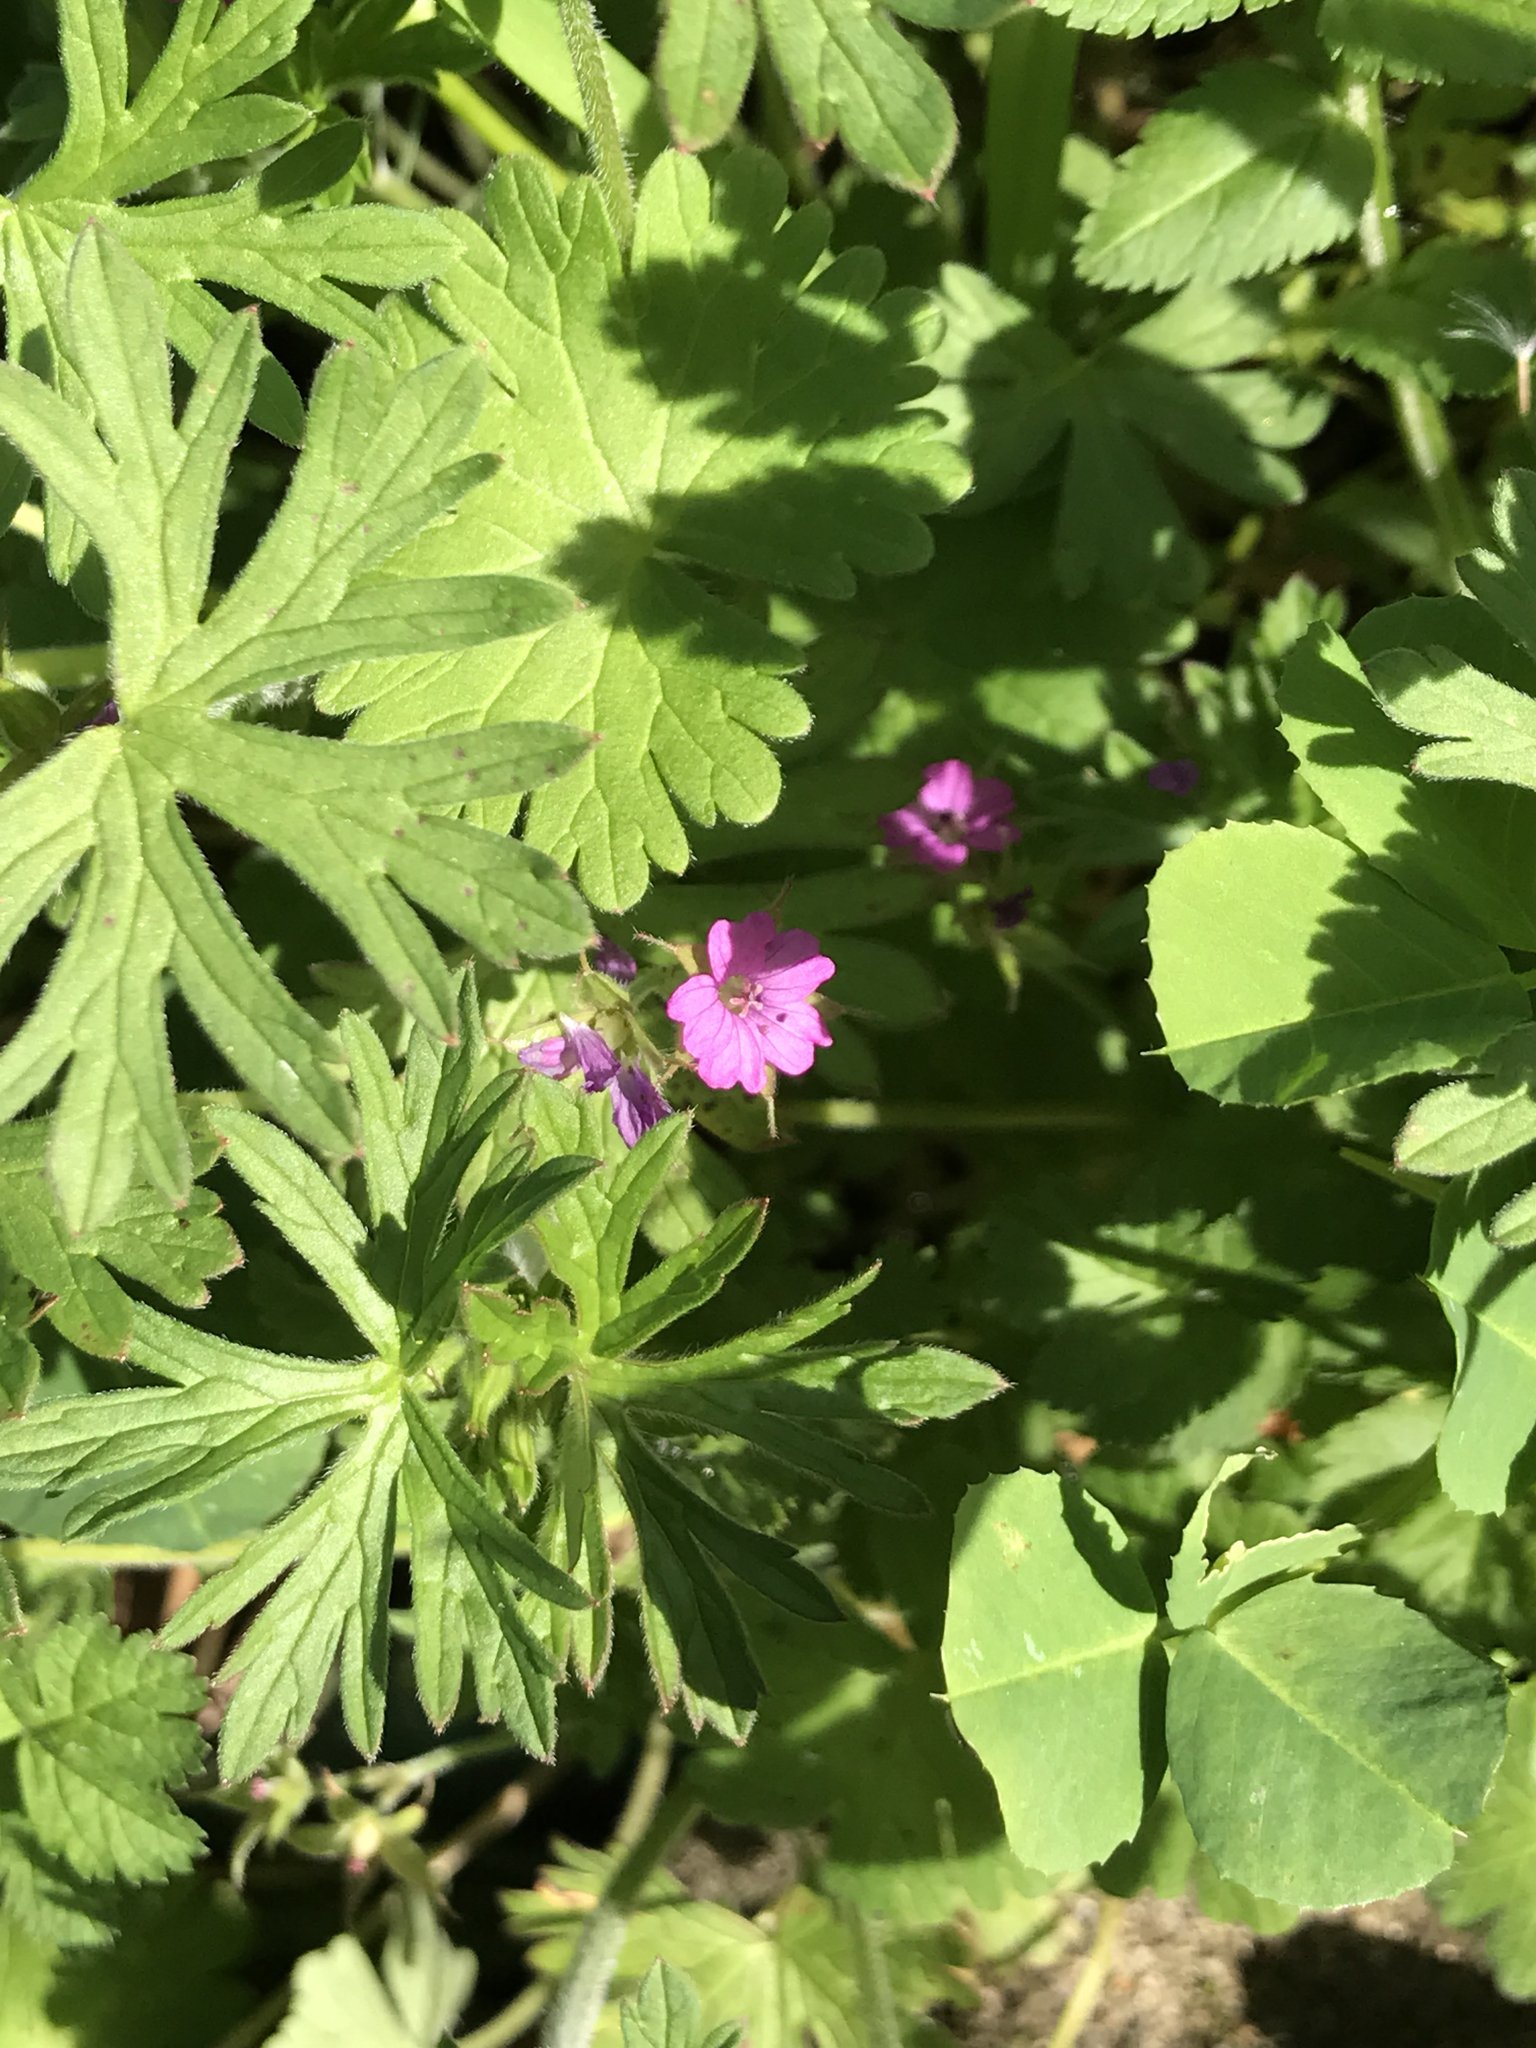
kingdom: Plantae
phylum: Tracheophyta
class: Magnoliopsida
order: Geraniales
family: Geraniaceae
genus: Geranium
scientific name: Geranium dissectum
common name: Cut-leaved crane's-bill
